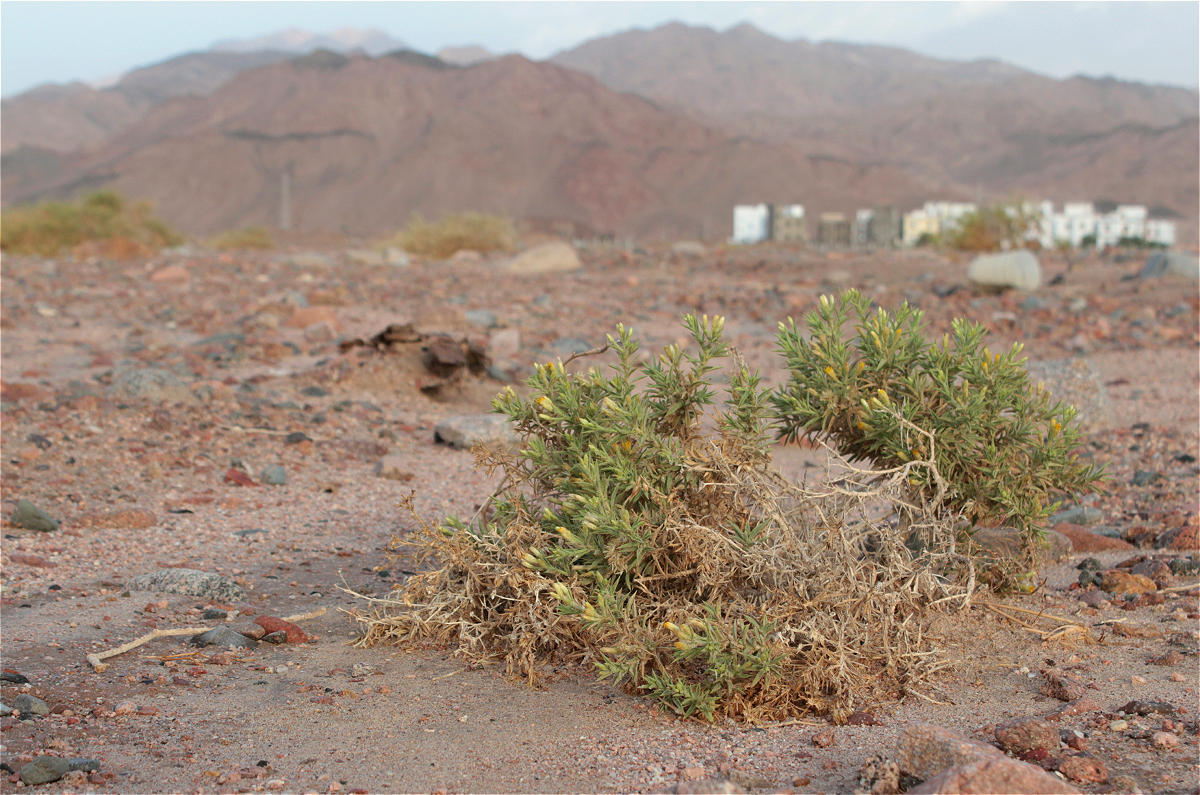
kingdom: Plantae
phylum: Tracheophyta
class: Magnoliopsida
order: Asterales
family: Asteraceae
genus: Iphiona
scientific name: Iphiona scabra
